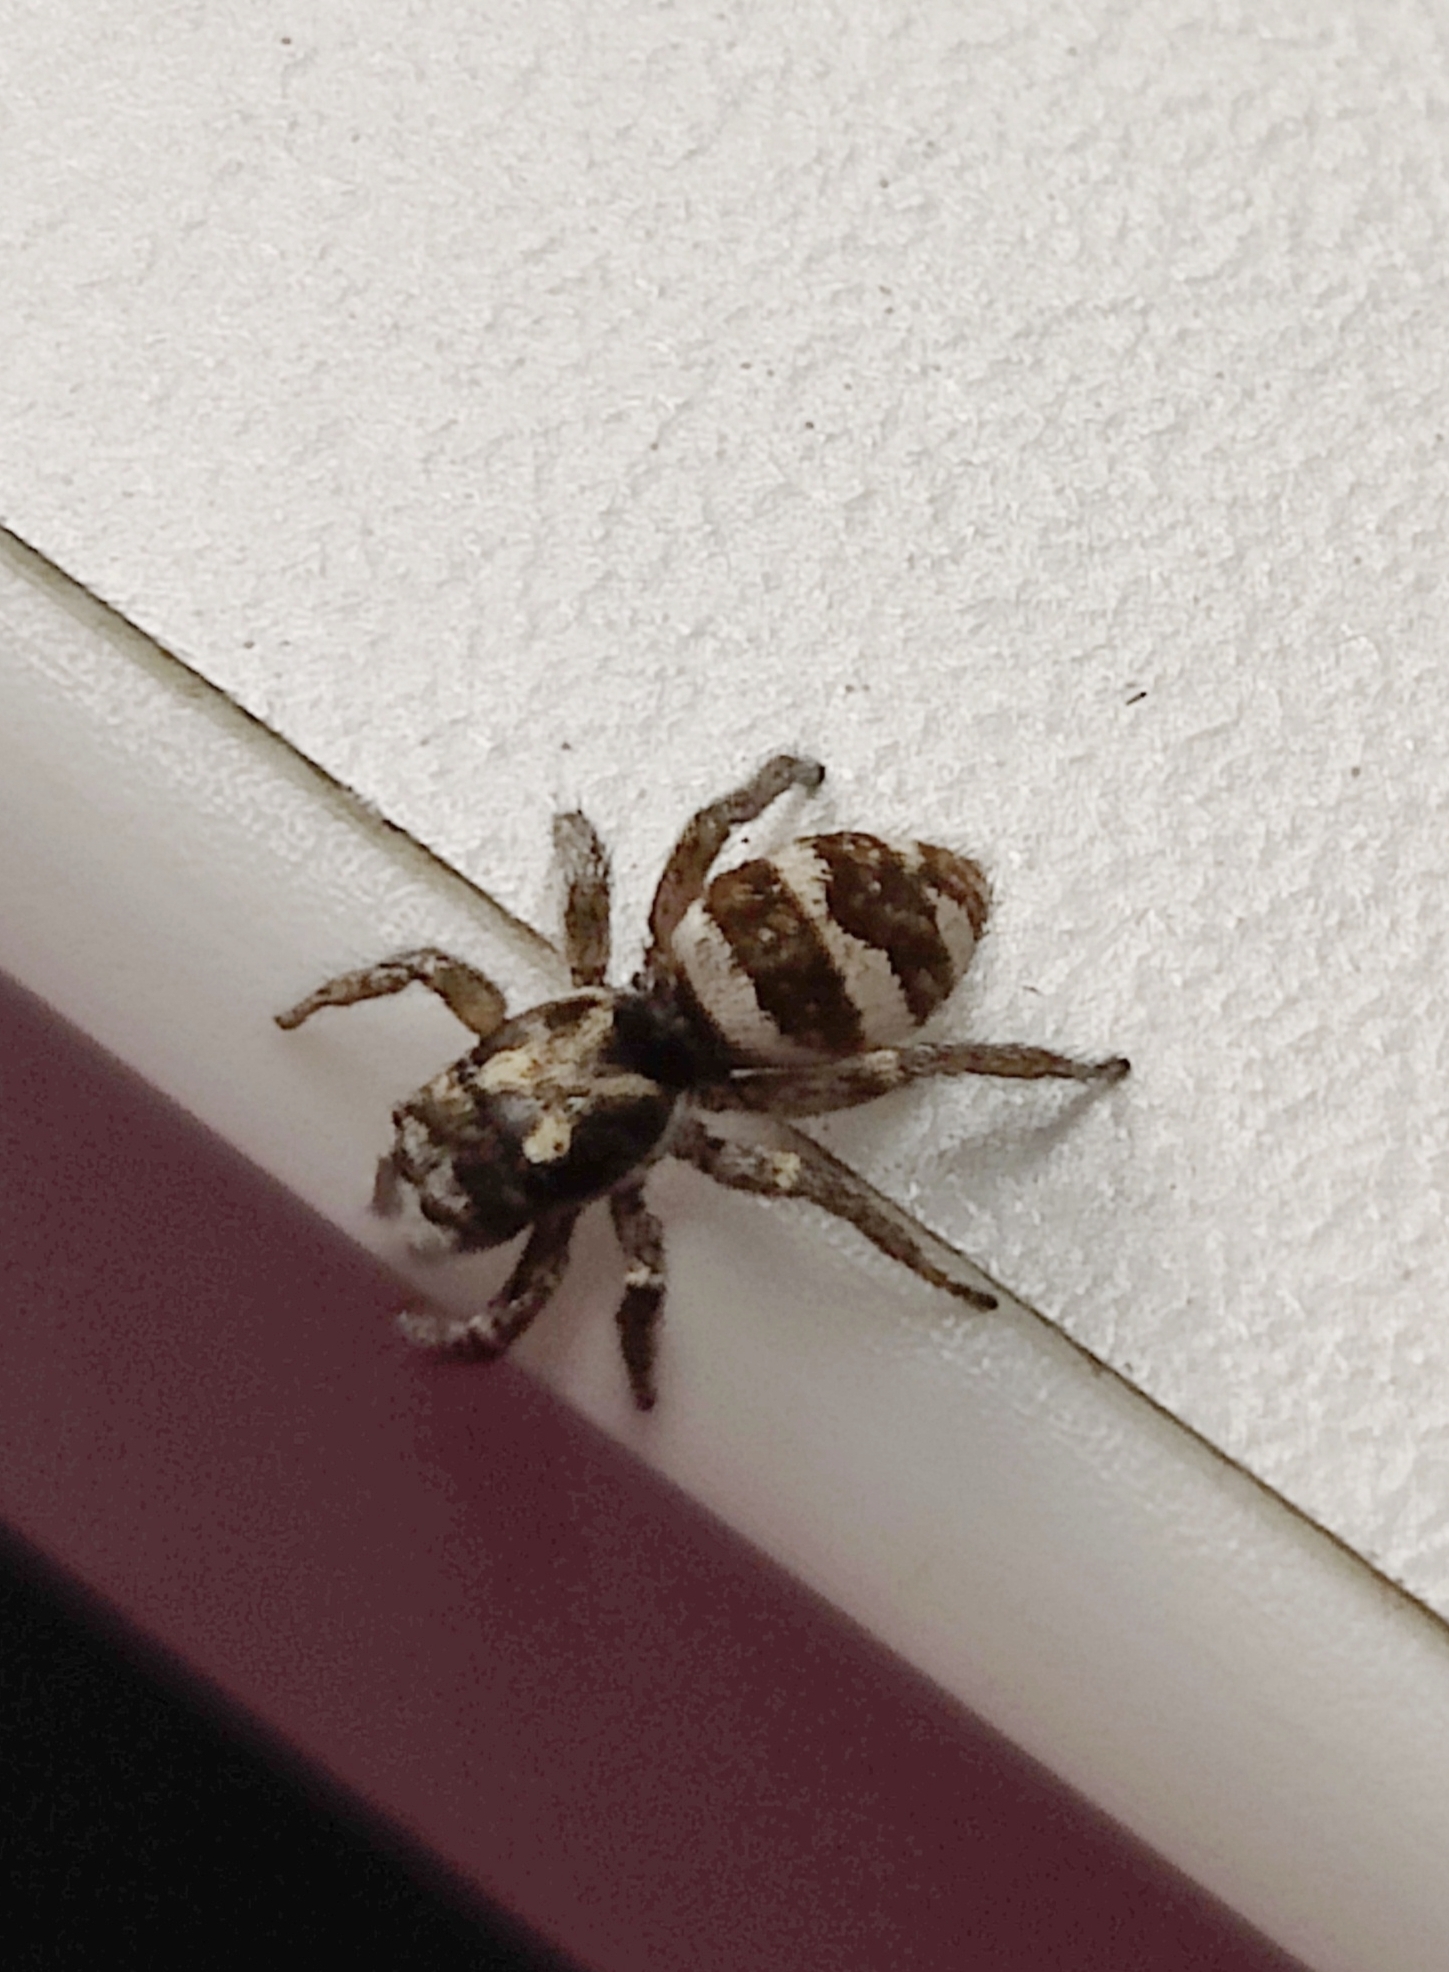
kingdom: Animalia
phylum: Arthropoda
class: Arachnida
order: Araneae
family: Salticidae
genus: Salticus
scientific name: Salticus scenicus
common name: Zebra jumper
